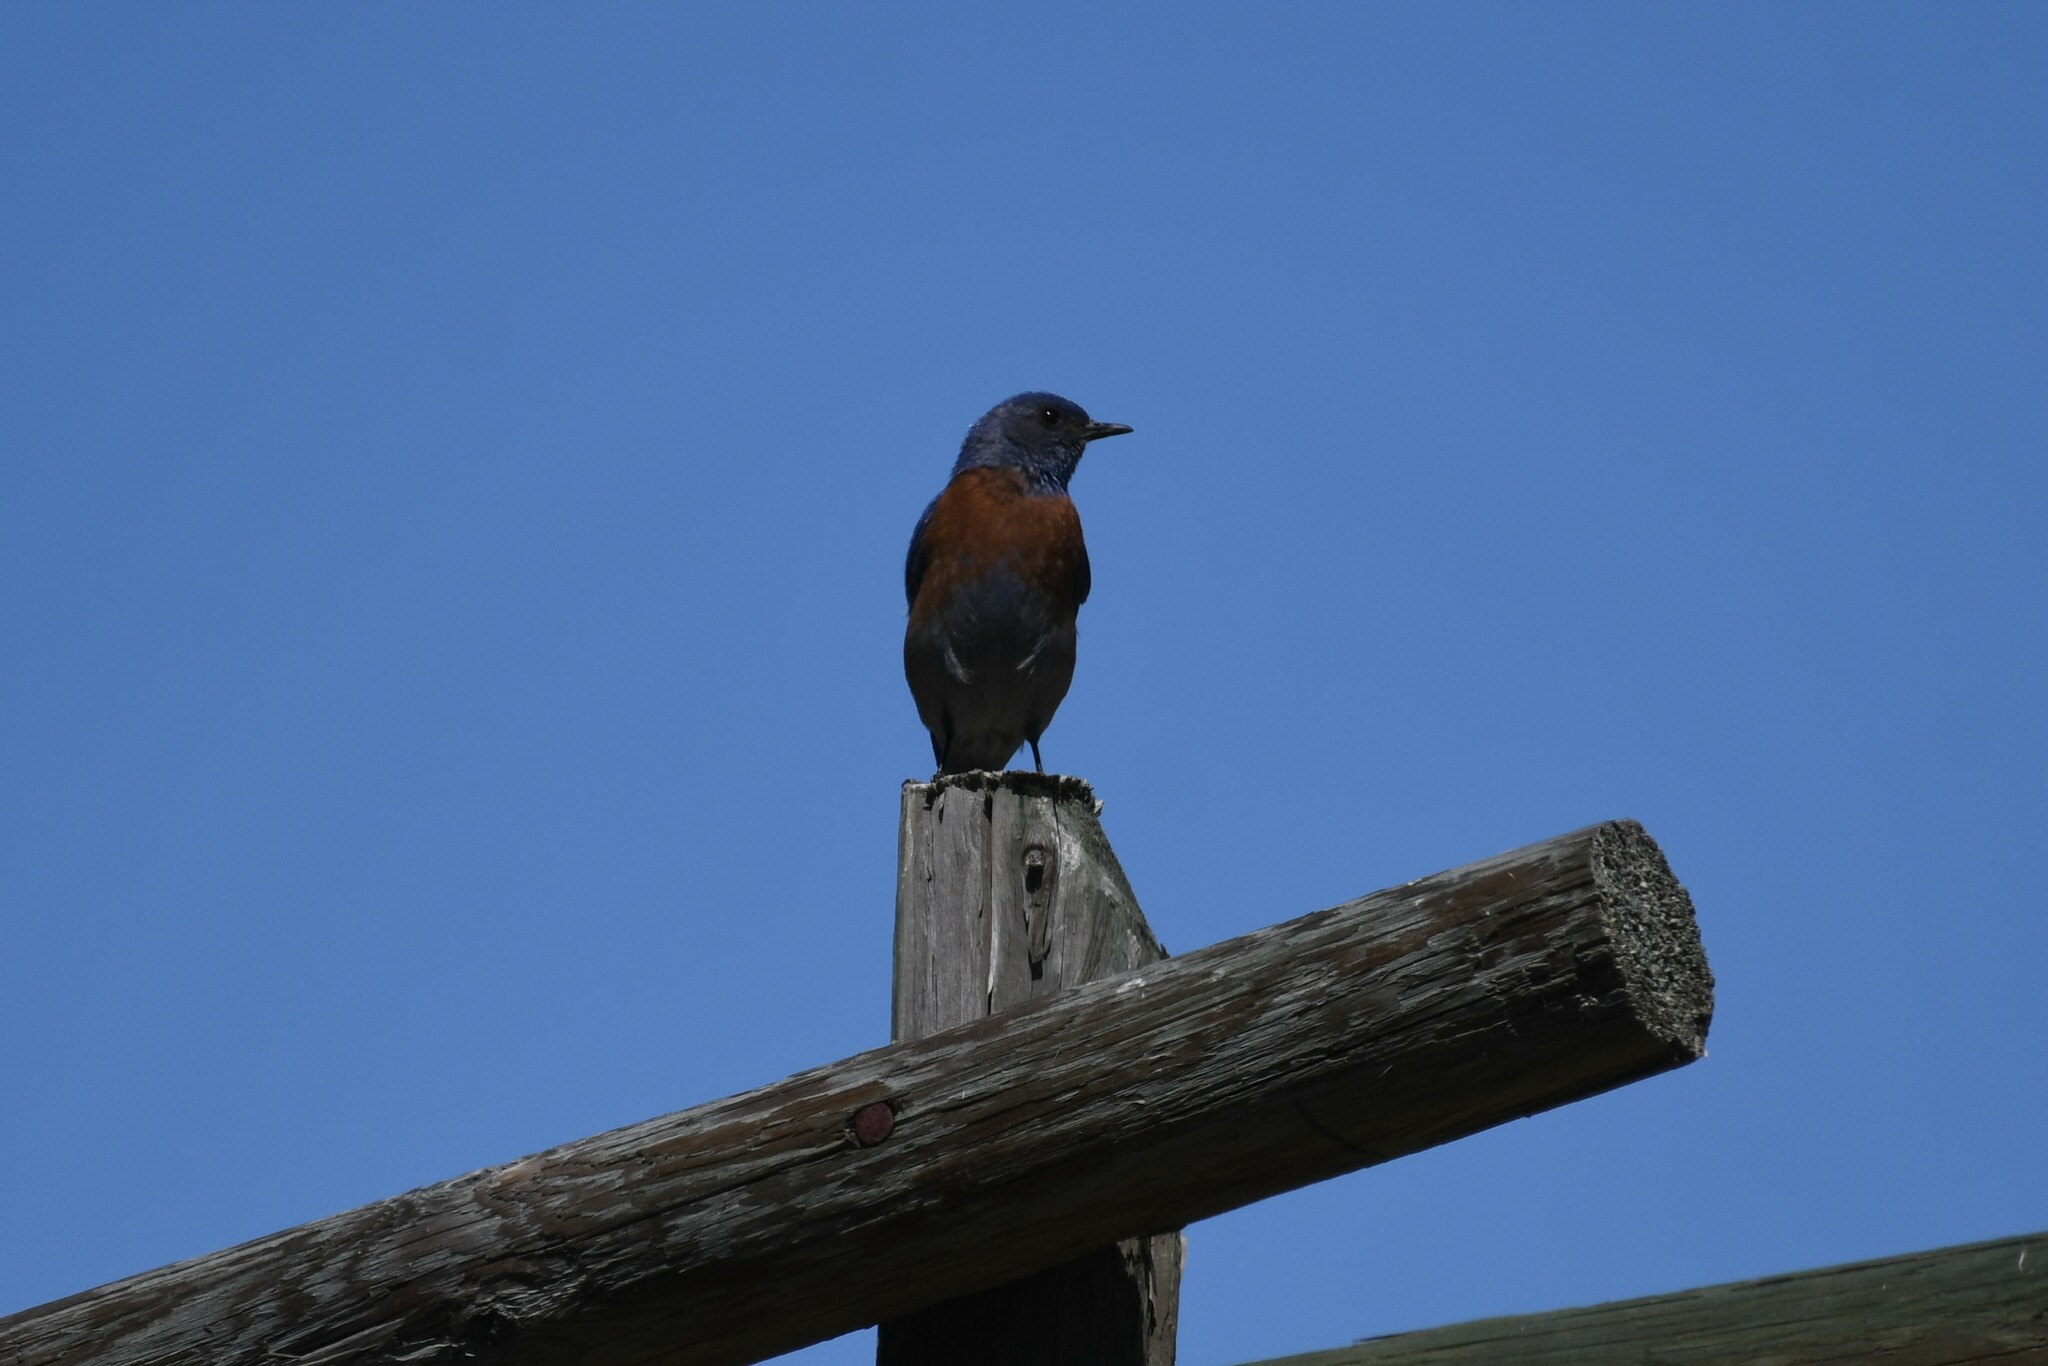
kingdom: Animalia
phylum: Chordata
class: Aves
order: Passeriformes
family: Turdidae
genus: Sialia
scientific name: Sialia mexicana
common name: Western bluebird
